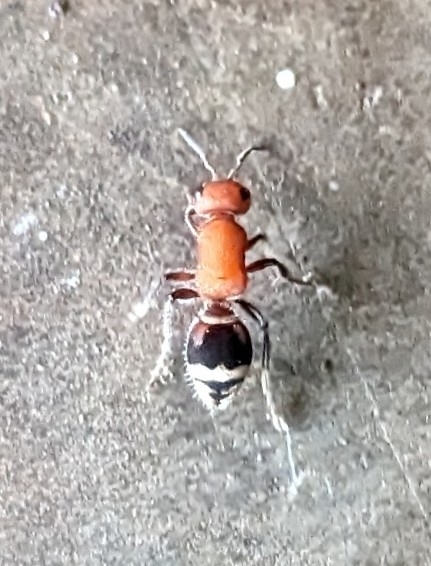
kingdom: Animalia
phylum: Arthropoda
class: Insecta
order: Hymenoptera
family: Mutillidae
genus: Timulla
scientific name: Timulla
